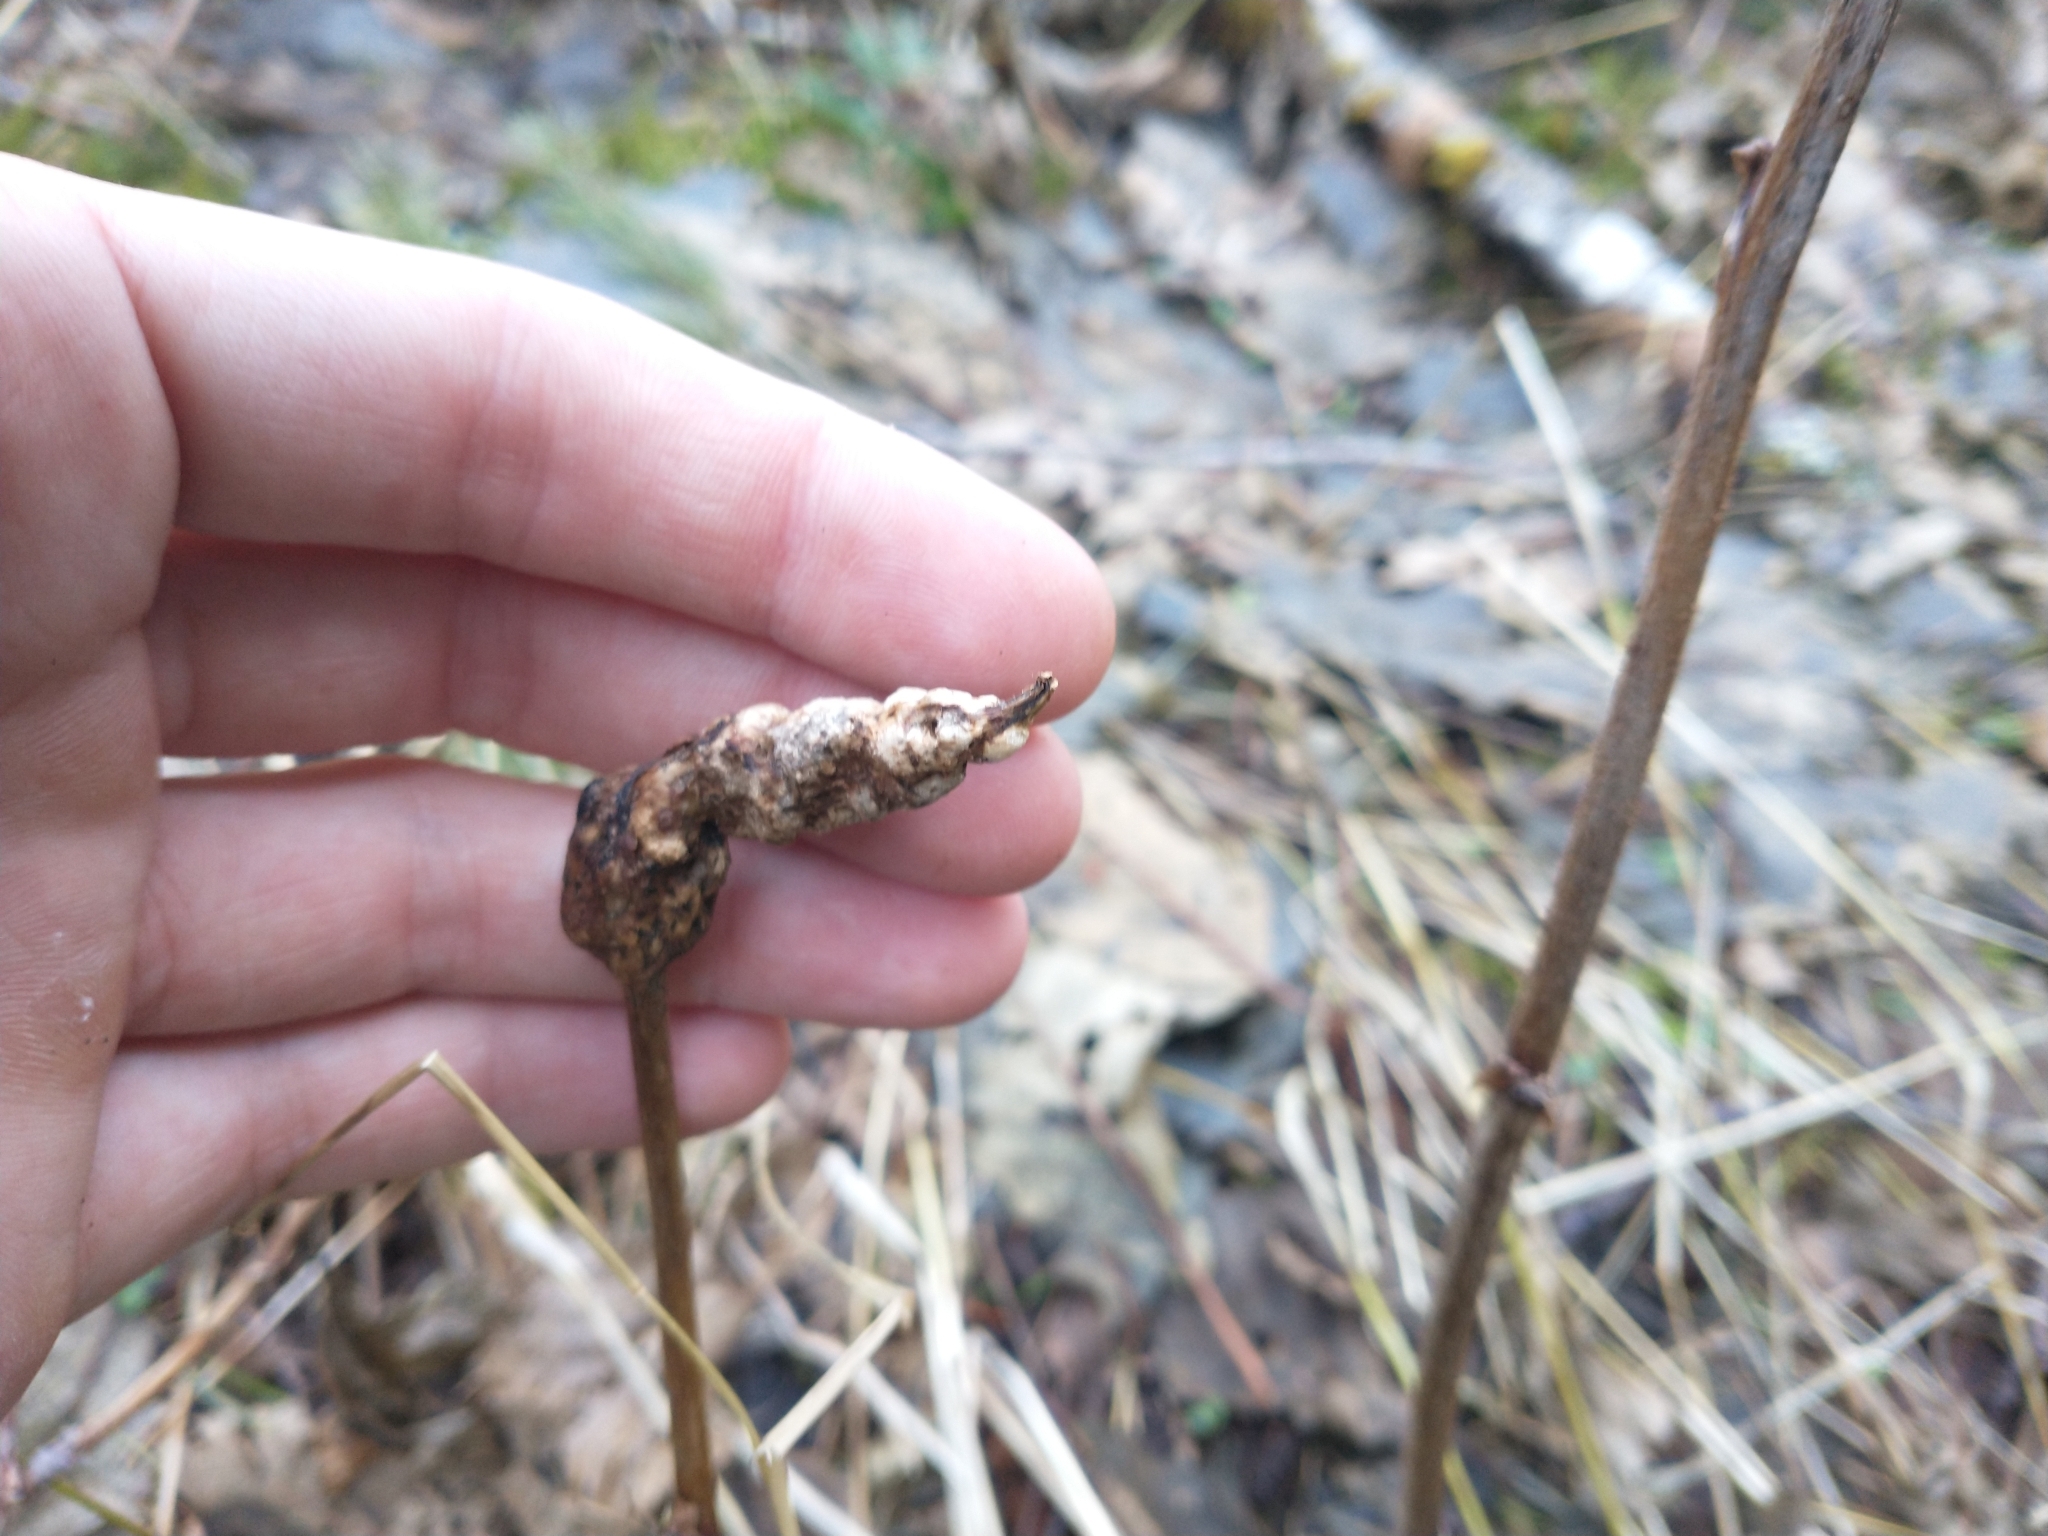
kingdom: Plantae
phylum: Tracheophyta
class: Magnoliopsida
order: Rosales
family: Rosaceae
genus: Rubus
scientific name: Rubus parviflorus
